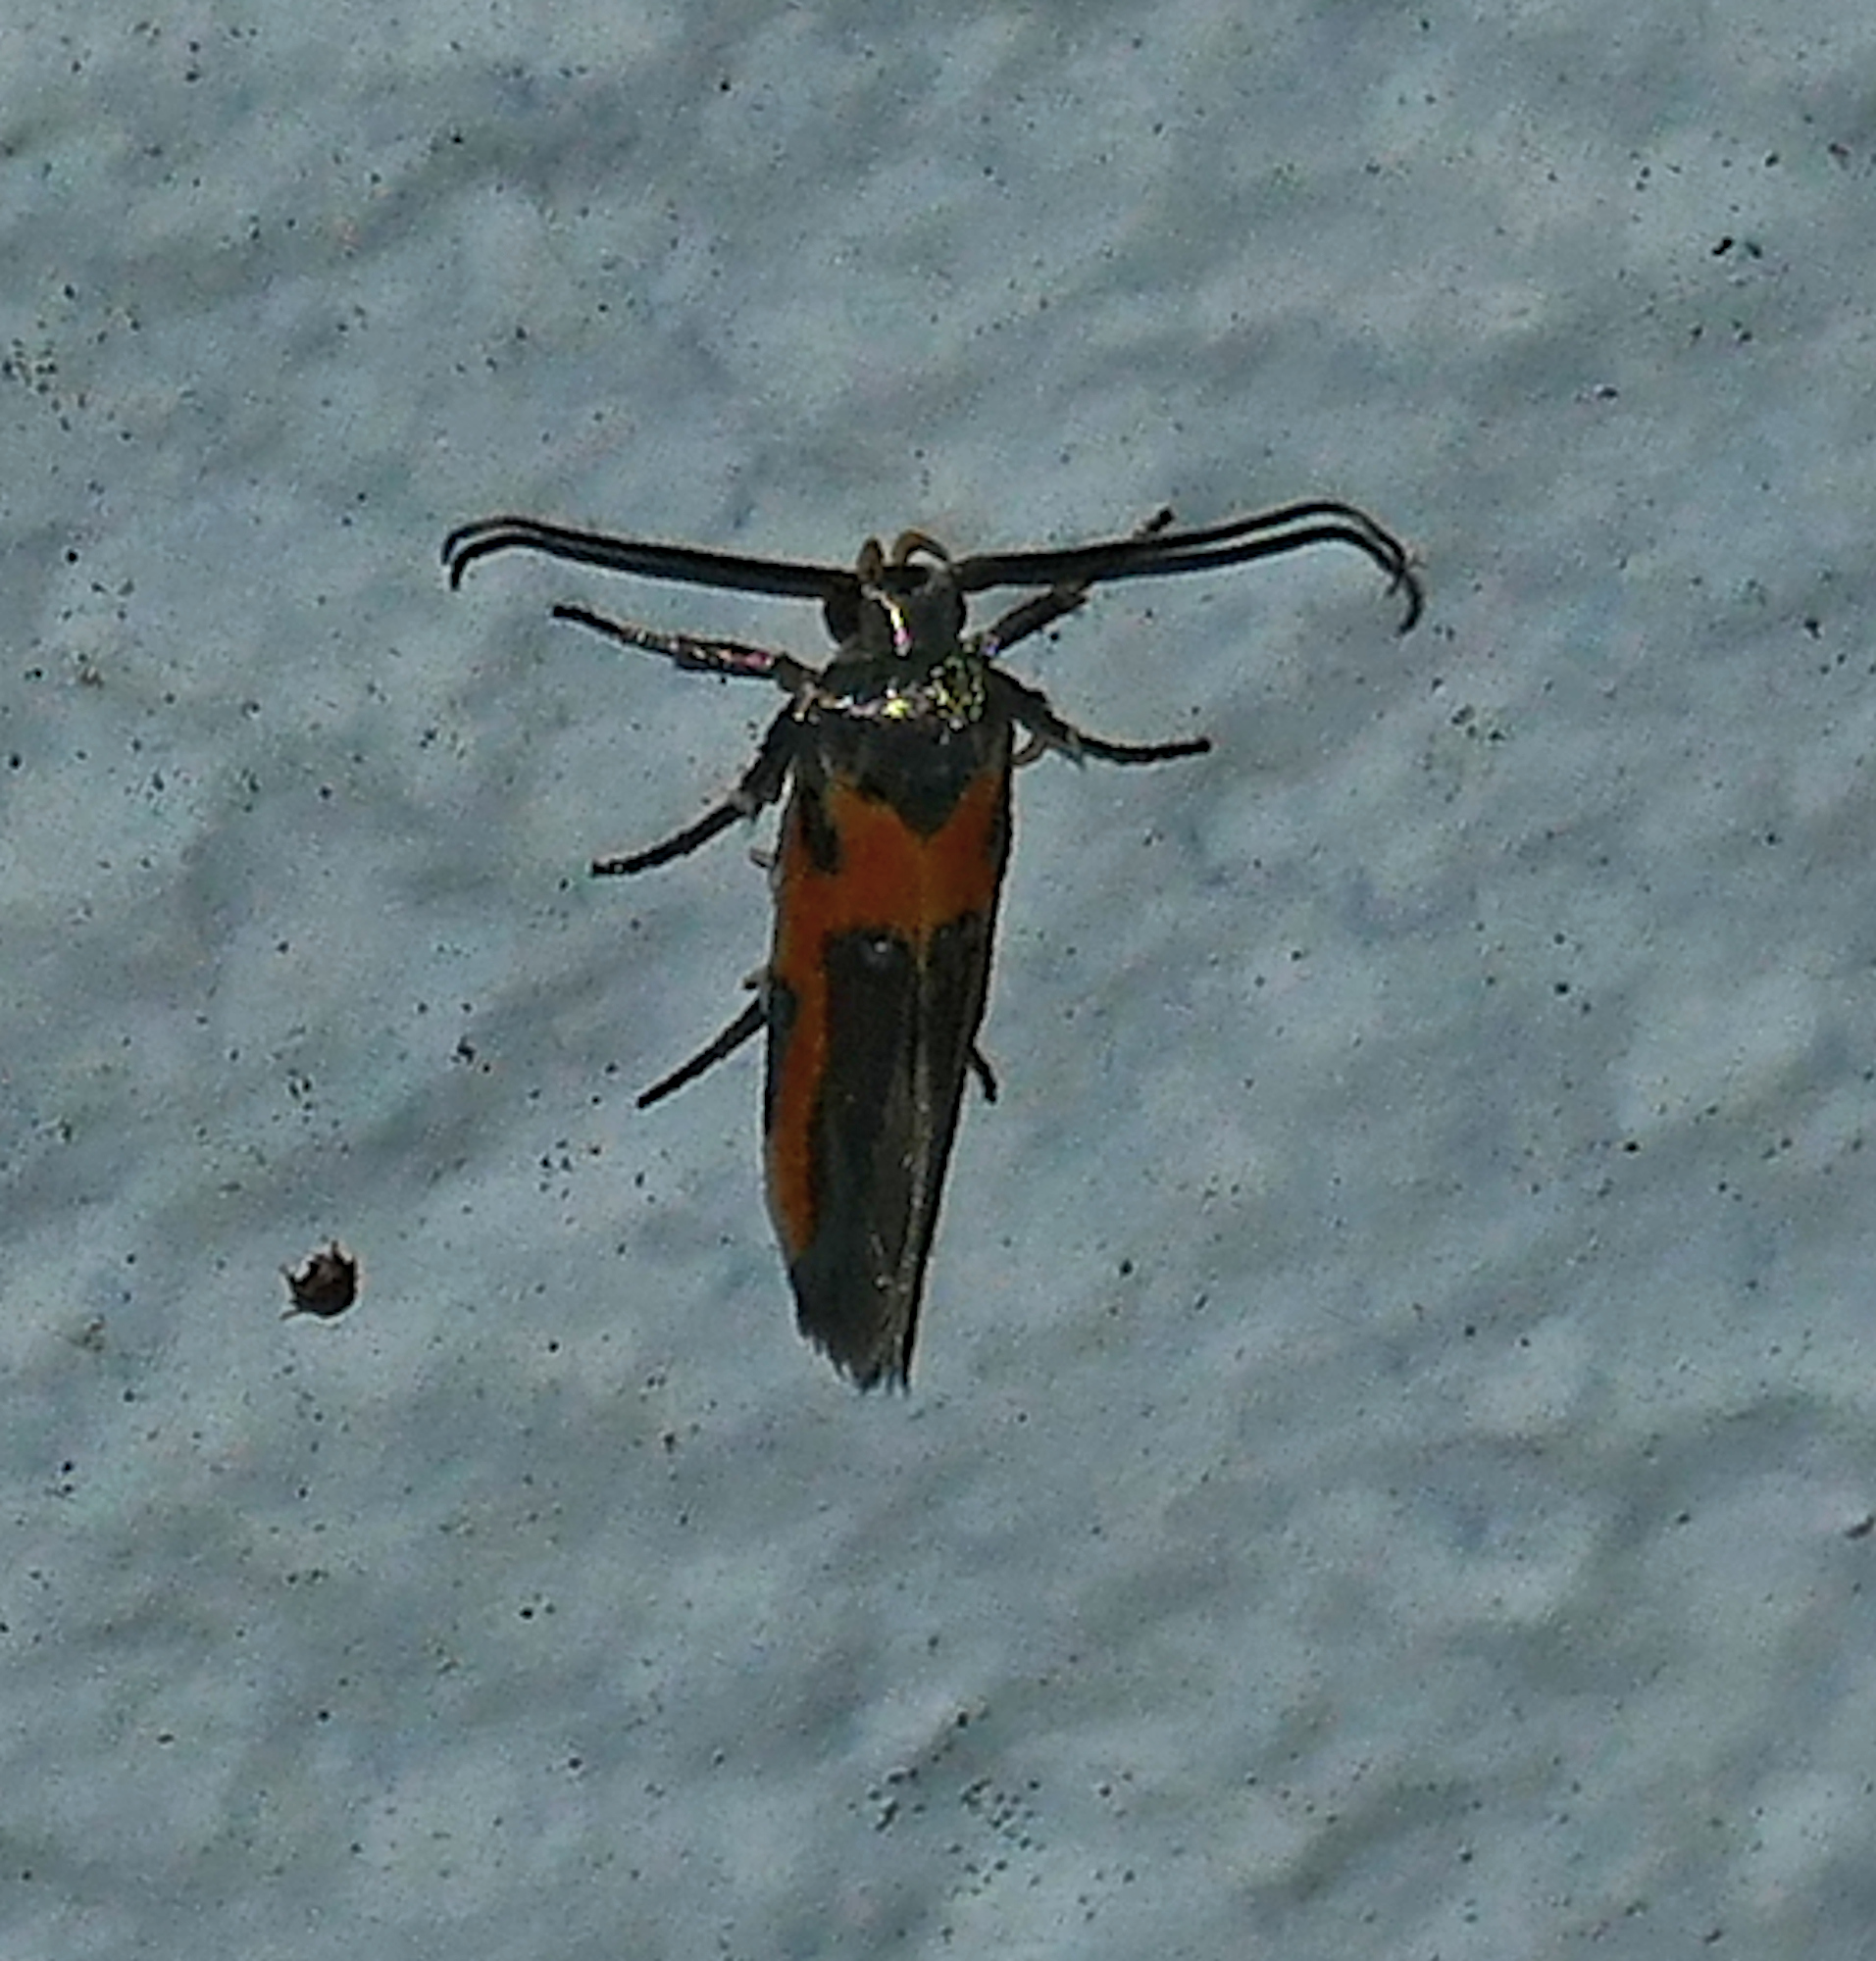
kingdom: Animalia
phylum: Arthropoda
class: Insecta
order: Lepidoptera
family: Cosmopterigidae
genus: Euclemensia
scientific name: Euclemensia bassettella
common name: Kermes scale moth
